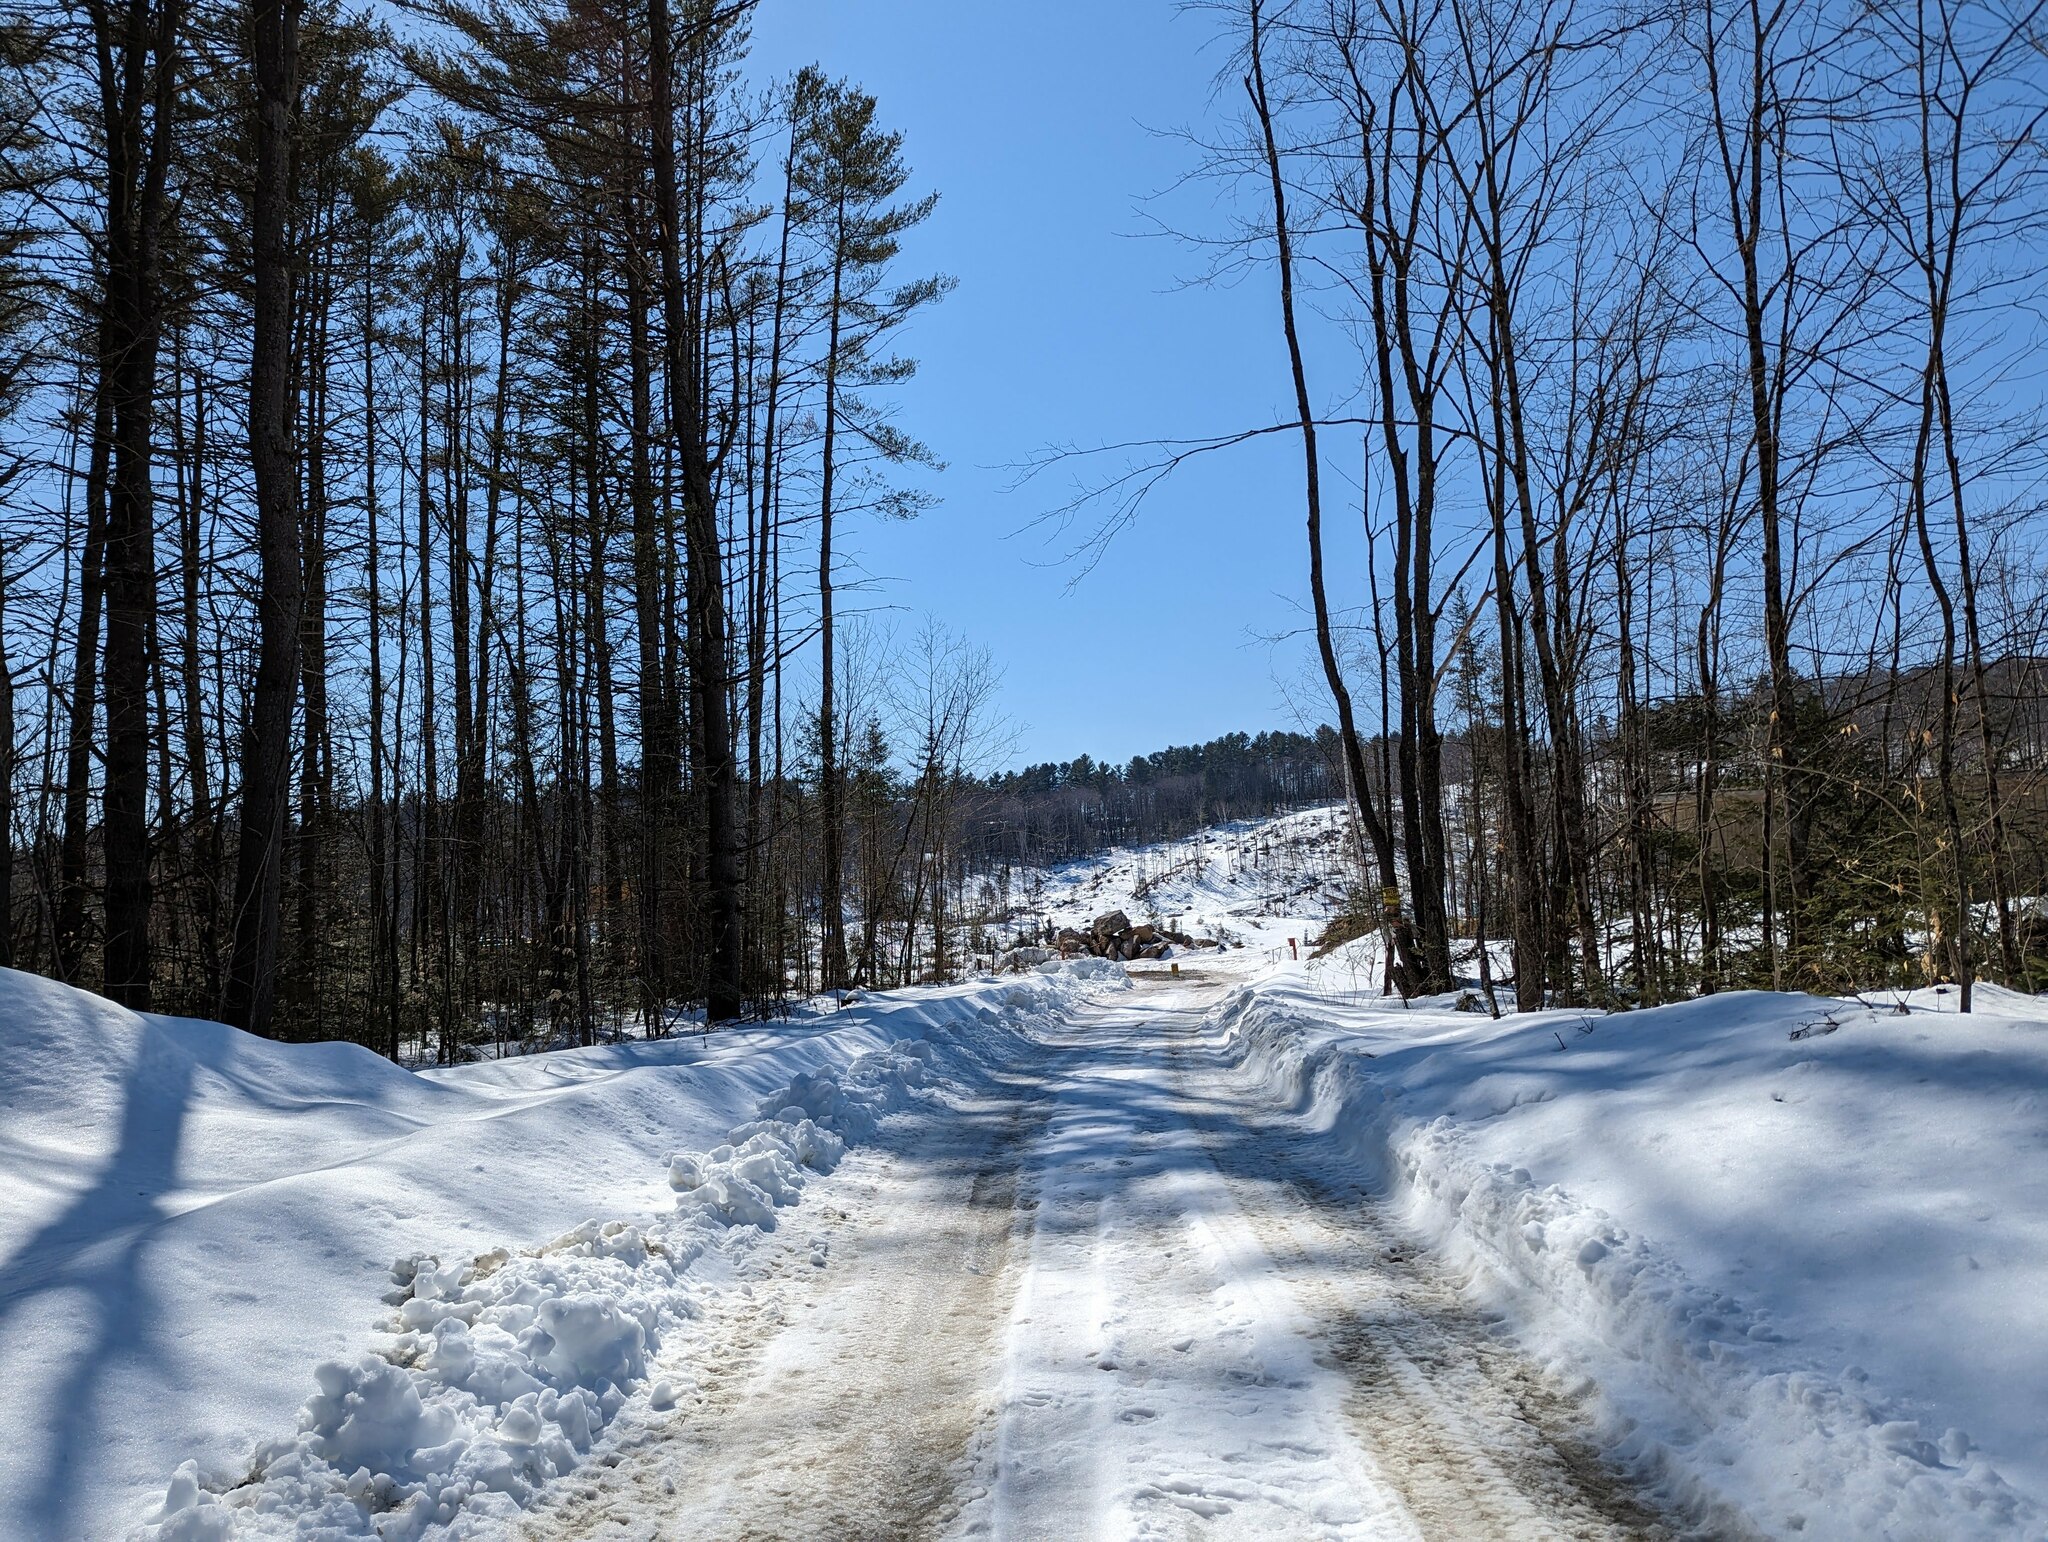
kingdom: Plantae
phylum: Tracheophyta
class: Pinopsida
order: Pinales
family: Pinaceae
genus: Pinus
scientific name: Pinus strobus
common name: Weymouth pine
